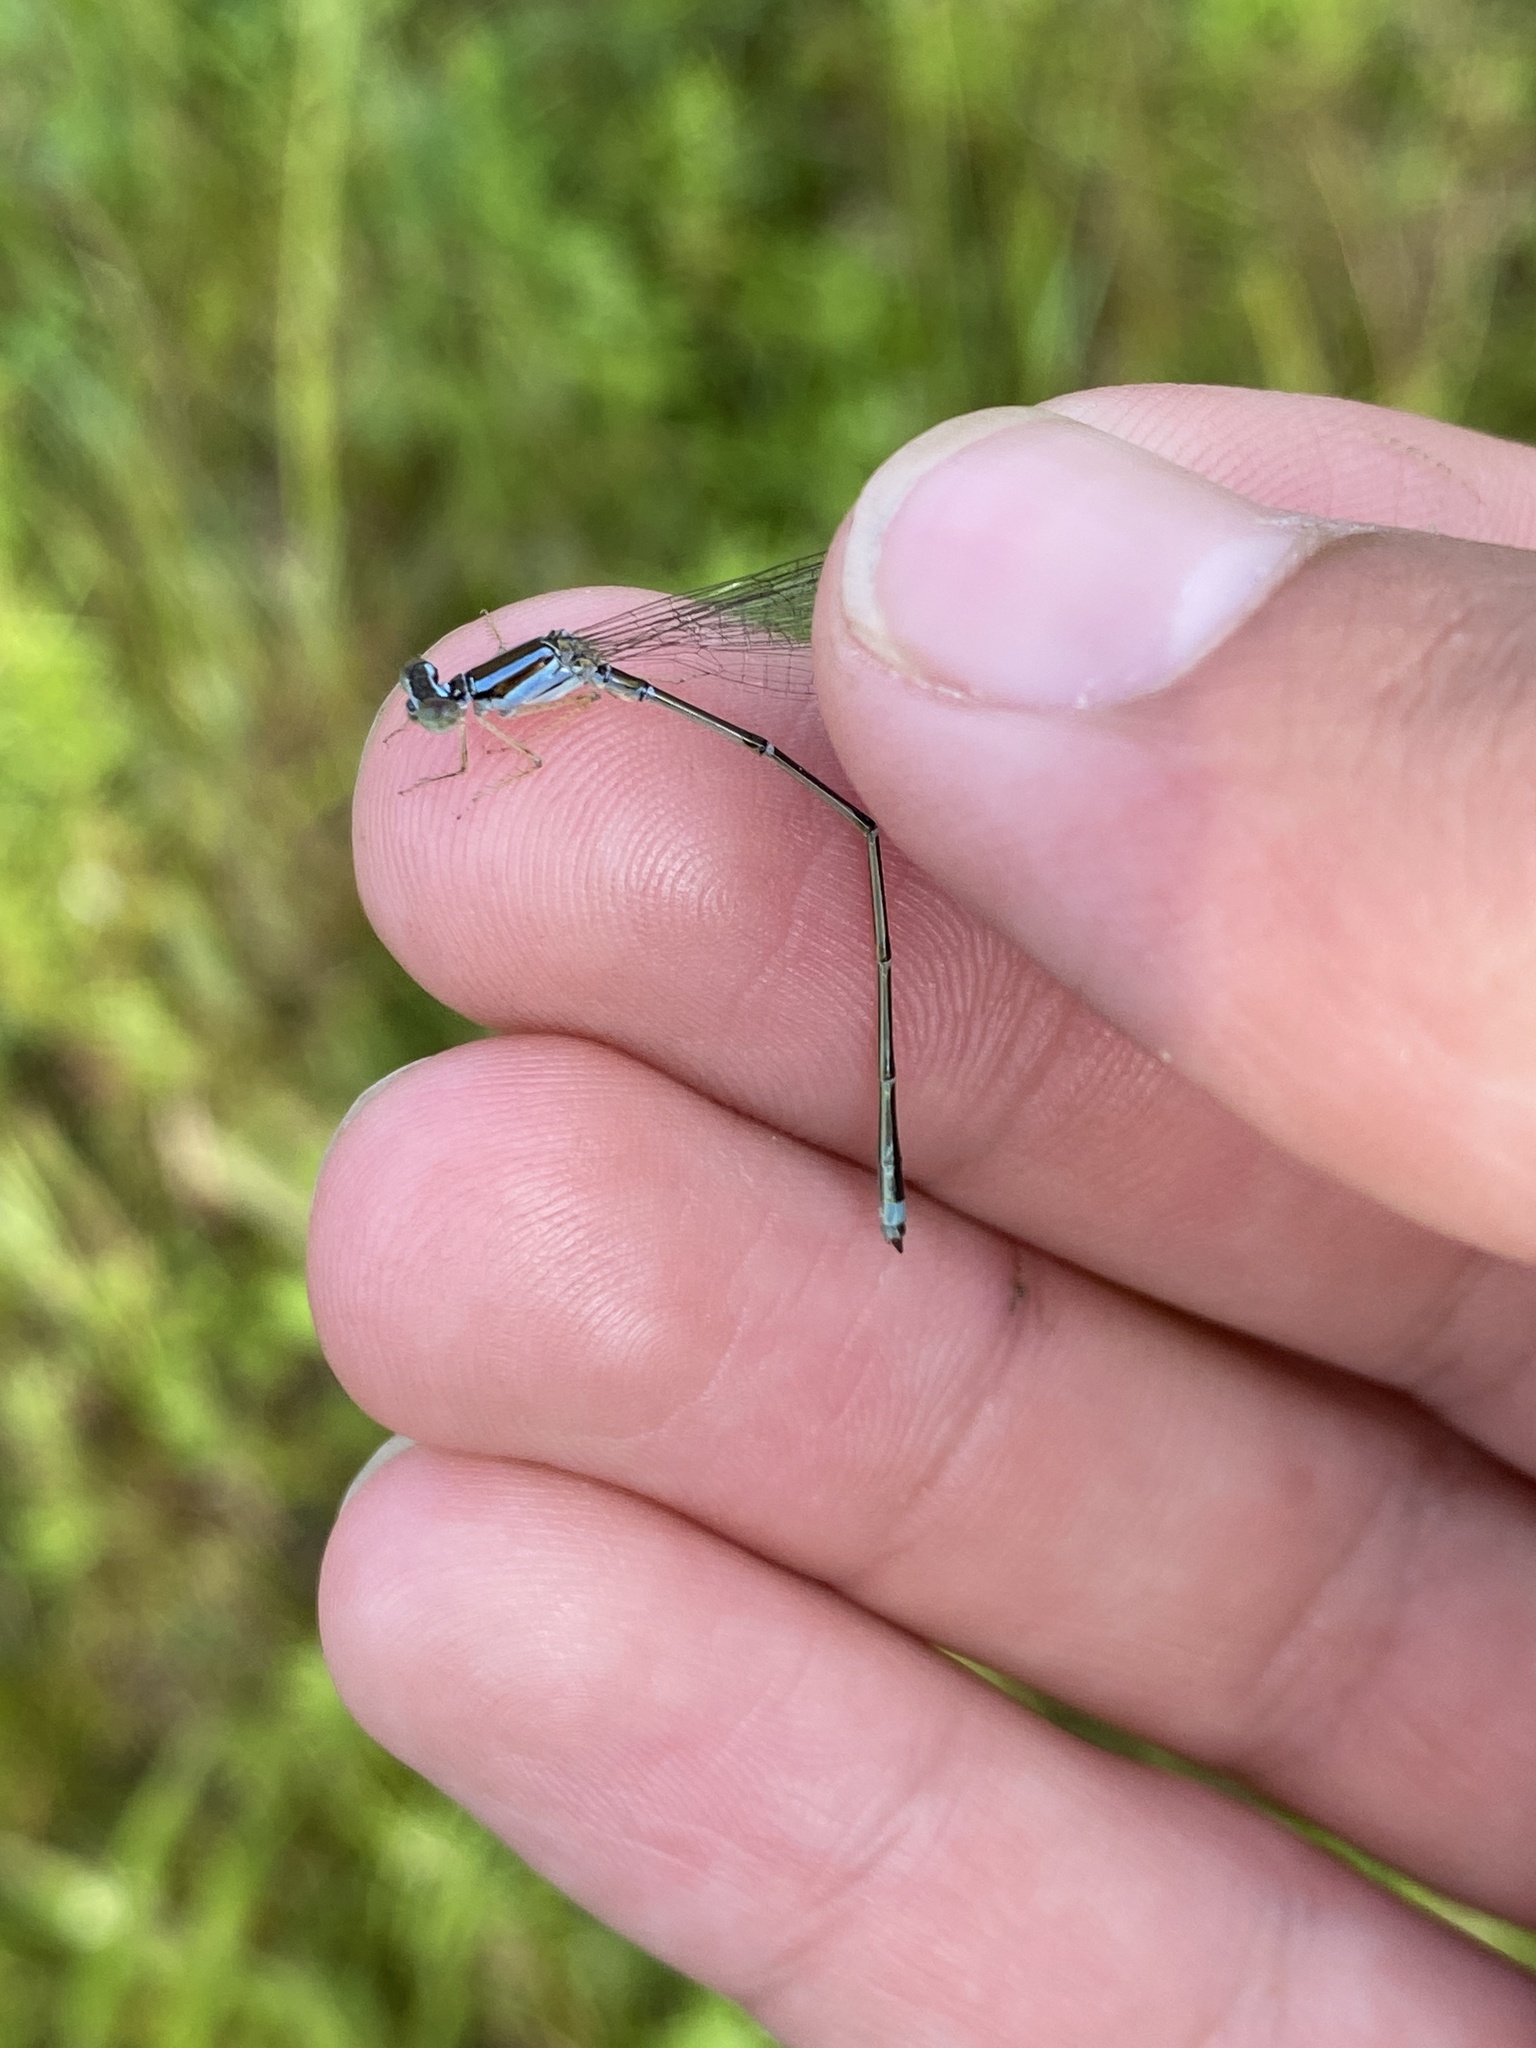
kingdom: Animalia
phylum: Arthropoda
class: Insecta
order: Odonata
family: Coenagrionidae
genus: Enallagma
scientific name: Enallagma signatum
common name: Orange bluet
